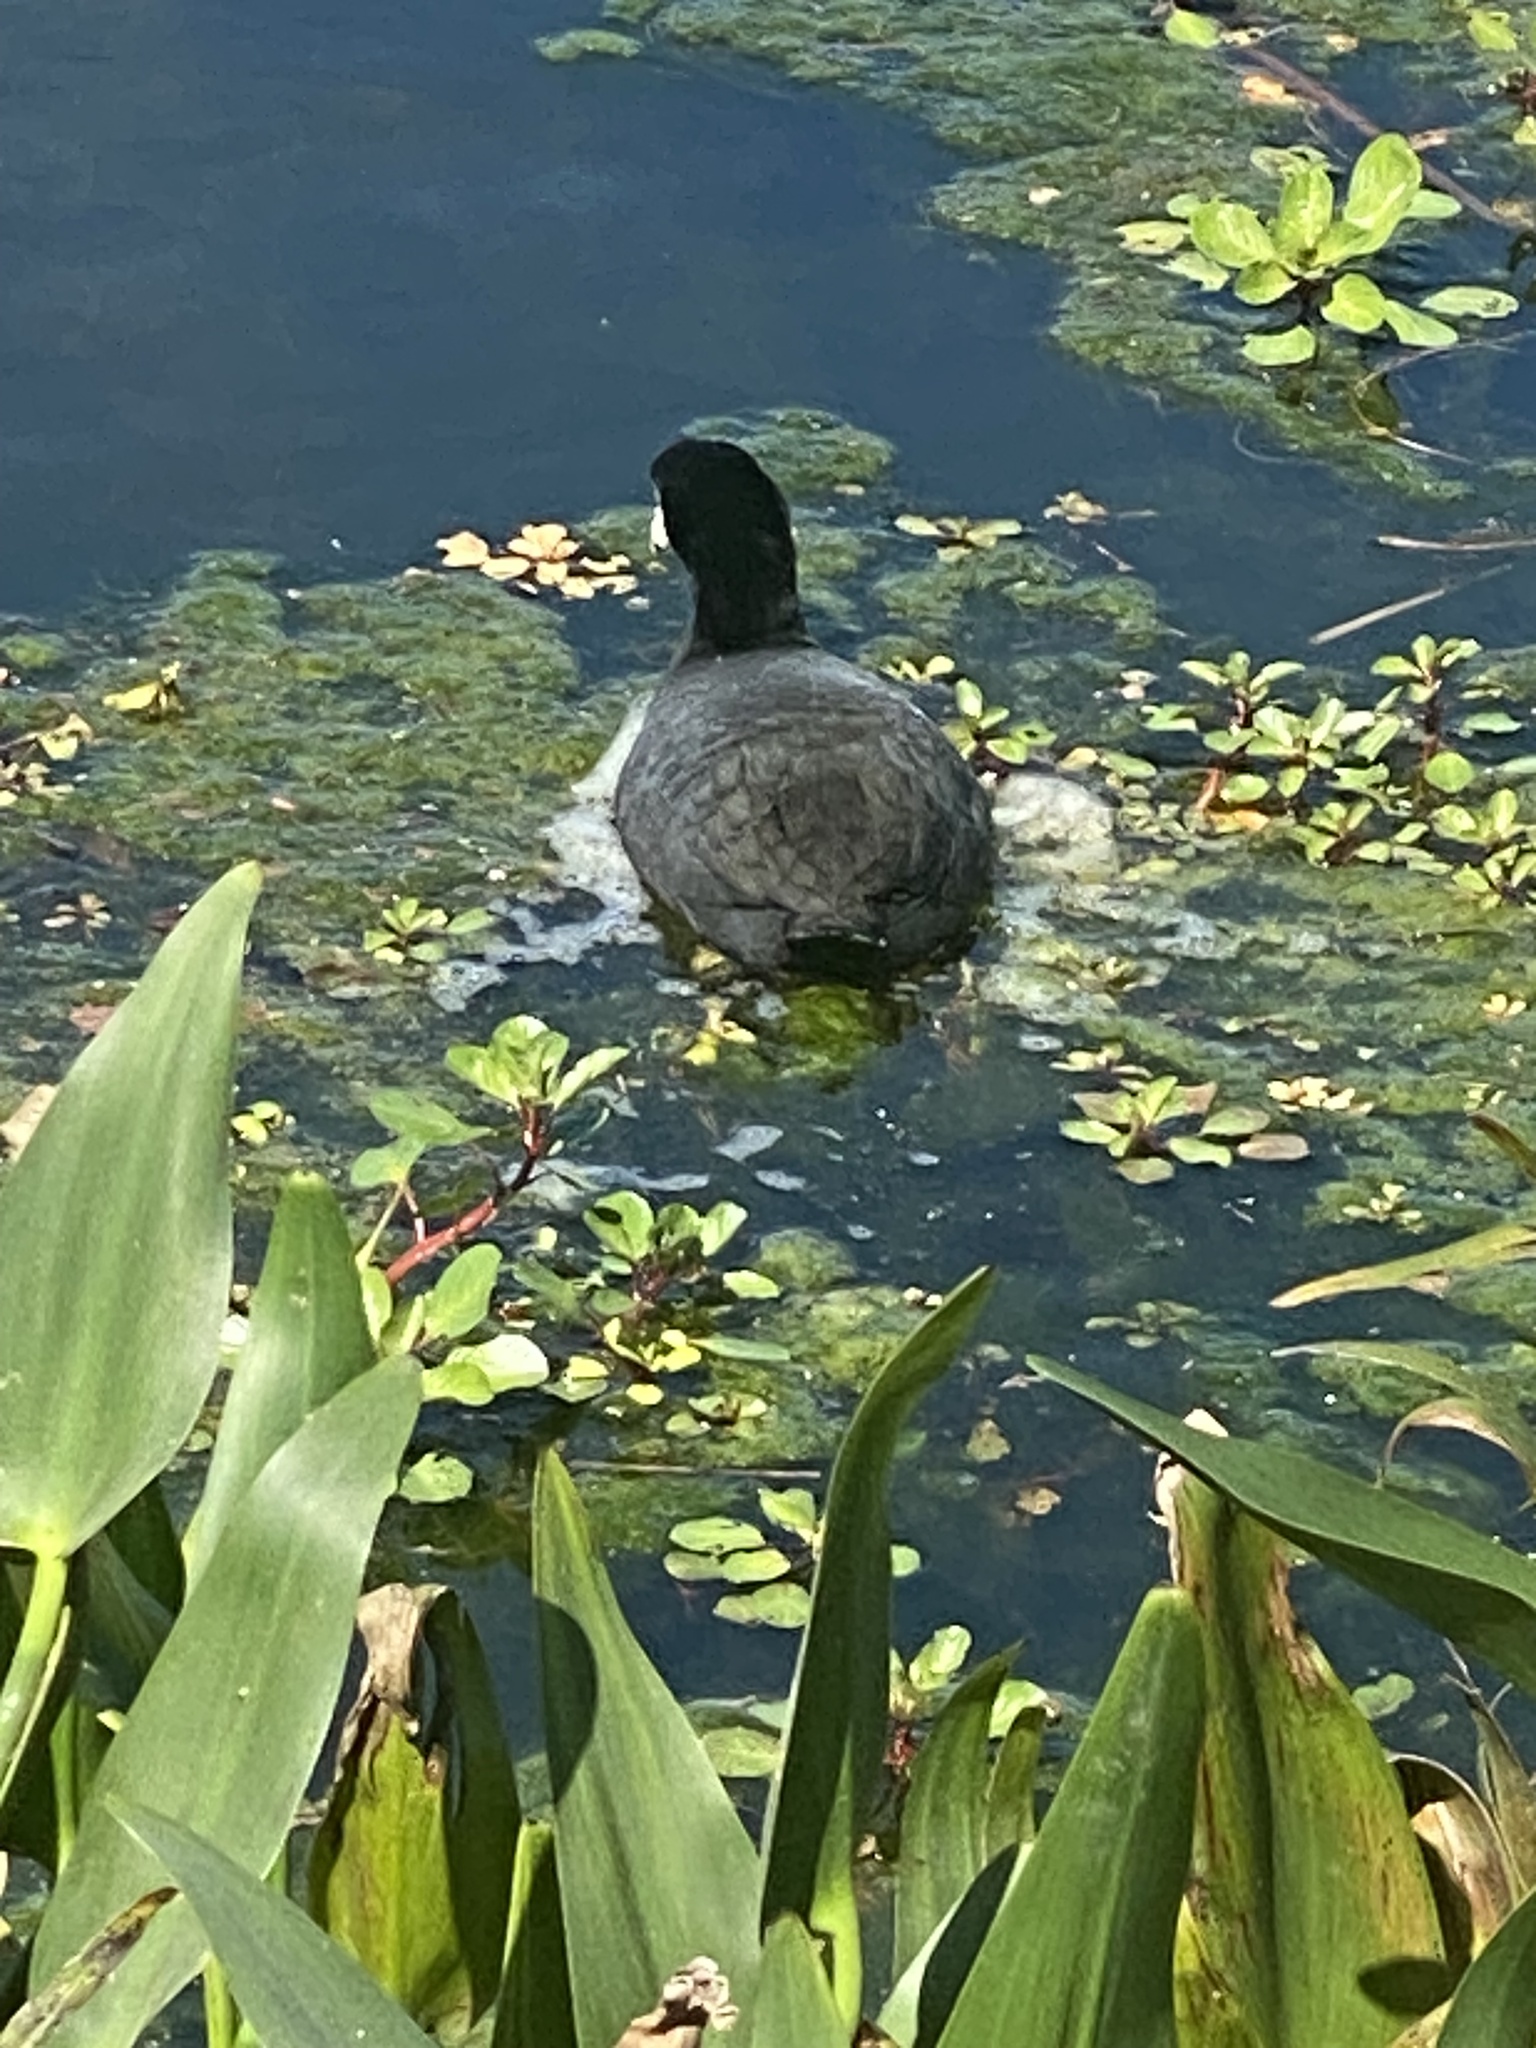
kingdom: Animalia
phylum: Chordata
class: Aves
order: Gruiformes
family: Rallidae
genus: Fulica
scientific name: Fulica americana
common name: American coot
